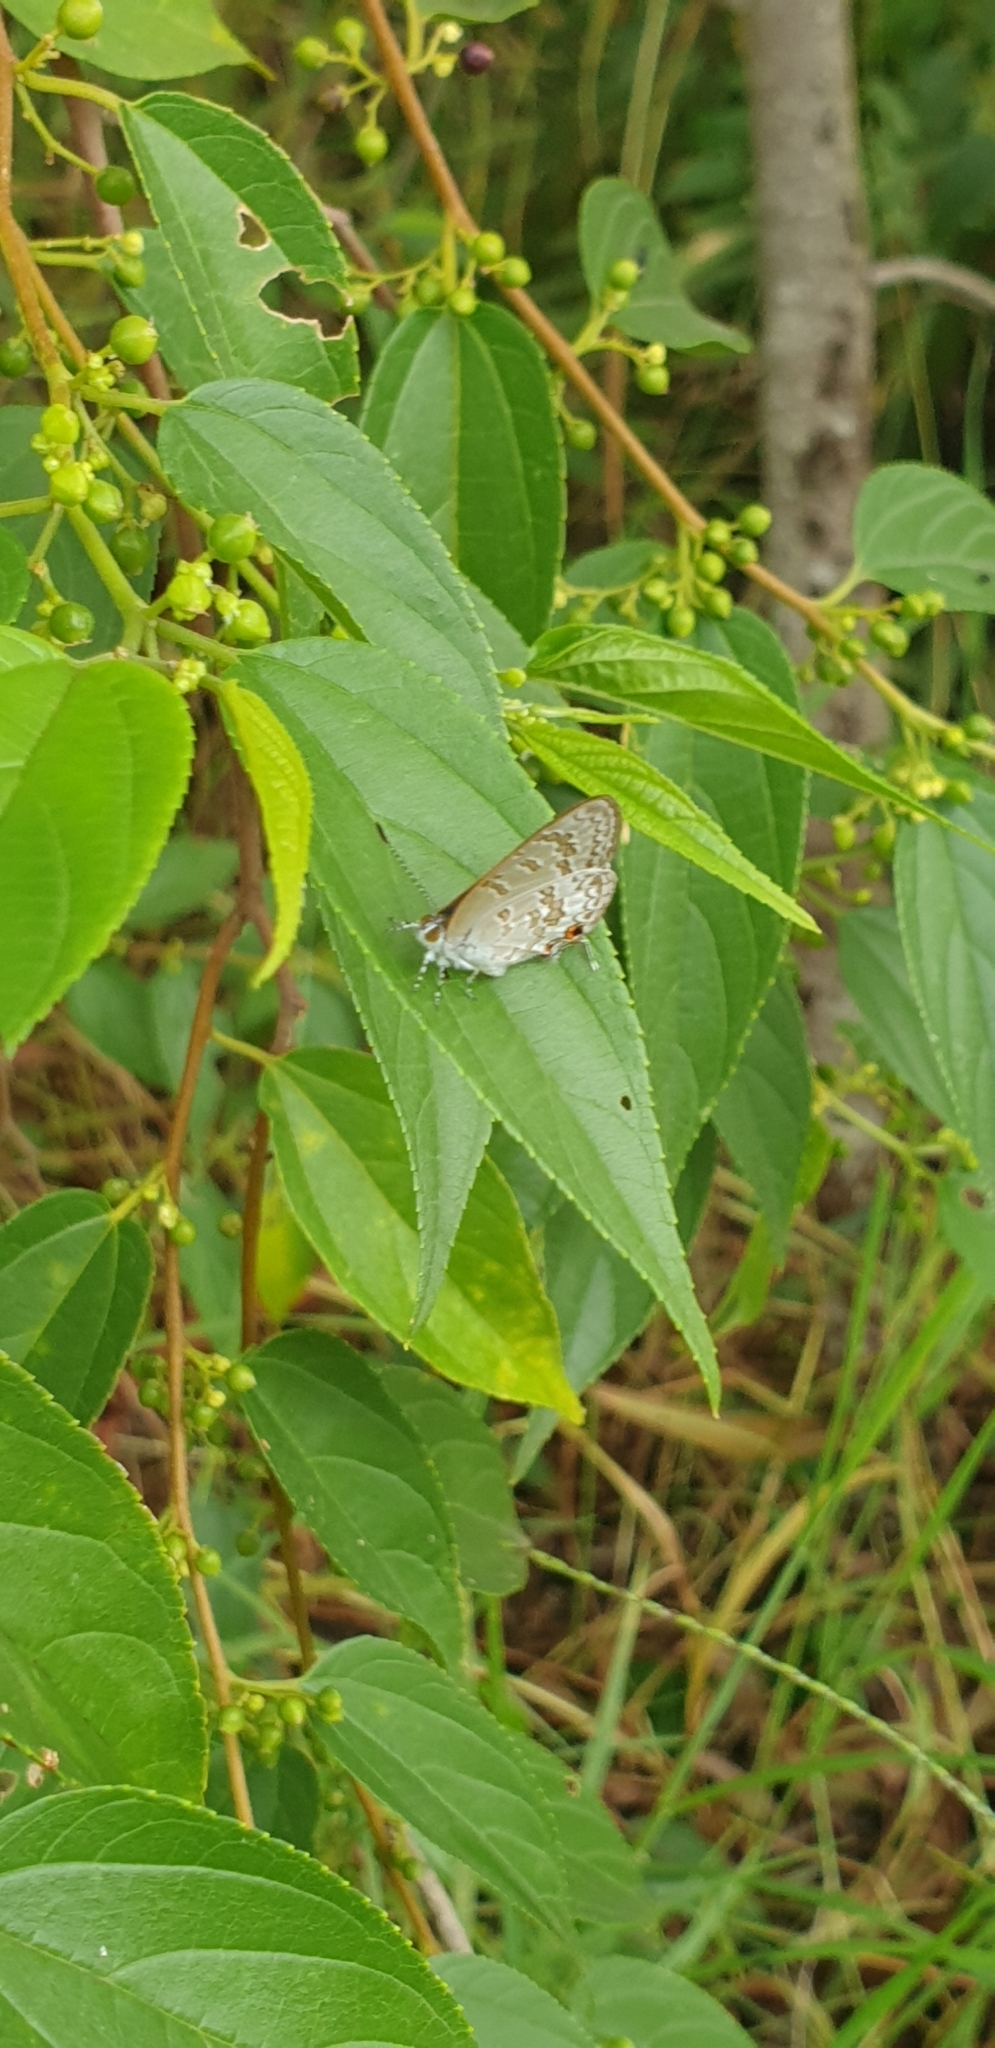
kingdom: Animalia
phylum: Arthropoda
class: Insecta
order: Lepidoptera
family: Lycaenidae
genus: Catopyrops
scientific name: Catopyrops florinda
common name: Speckled line-blue
